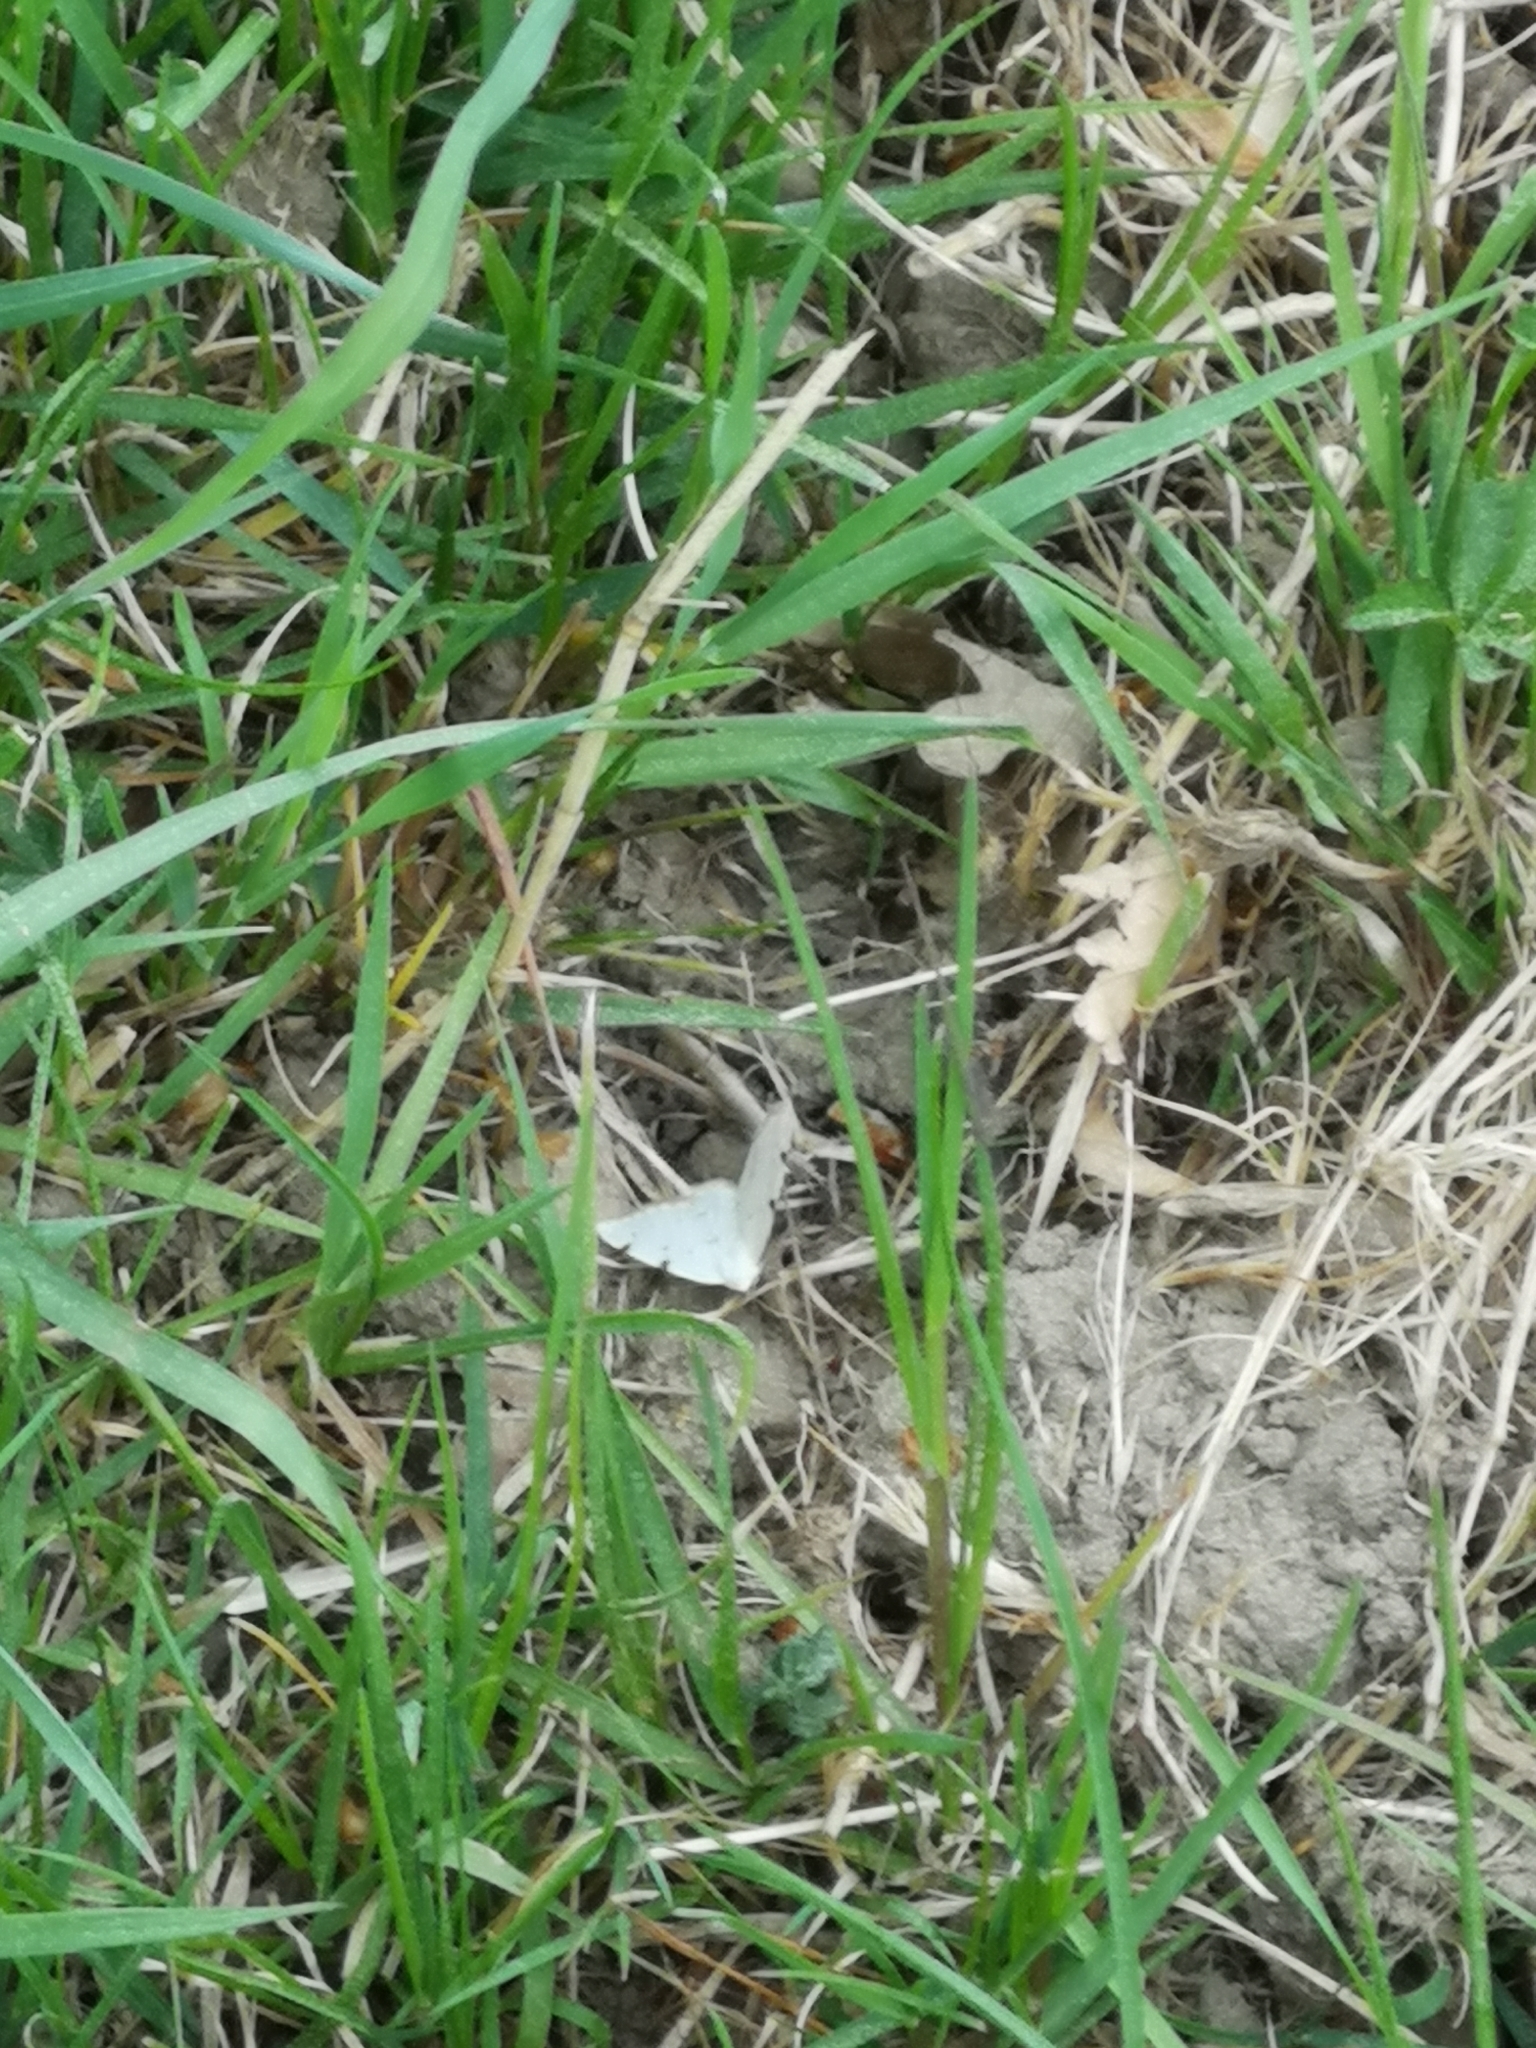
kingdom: Animalia
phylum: Arthropoda
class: Insecta
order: Lepidoptera
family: Geometridae
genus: Lomographa
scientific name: Lomographa bimaculata
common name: White-pinion spotted
